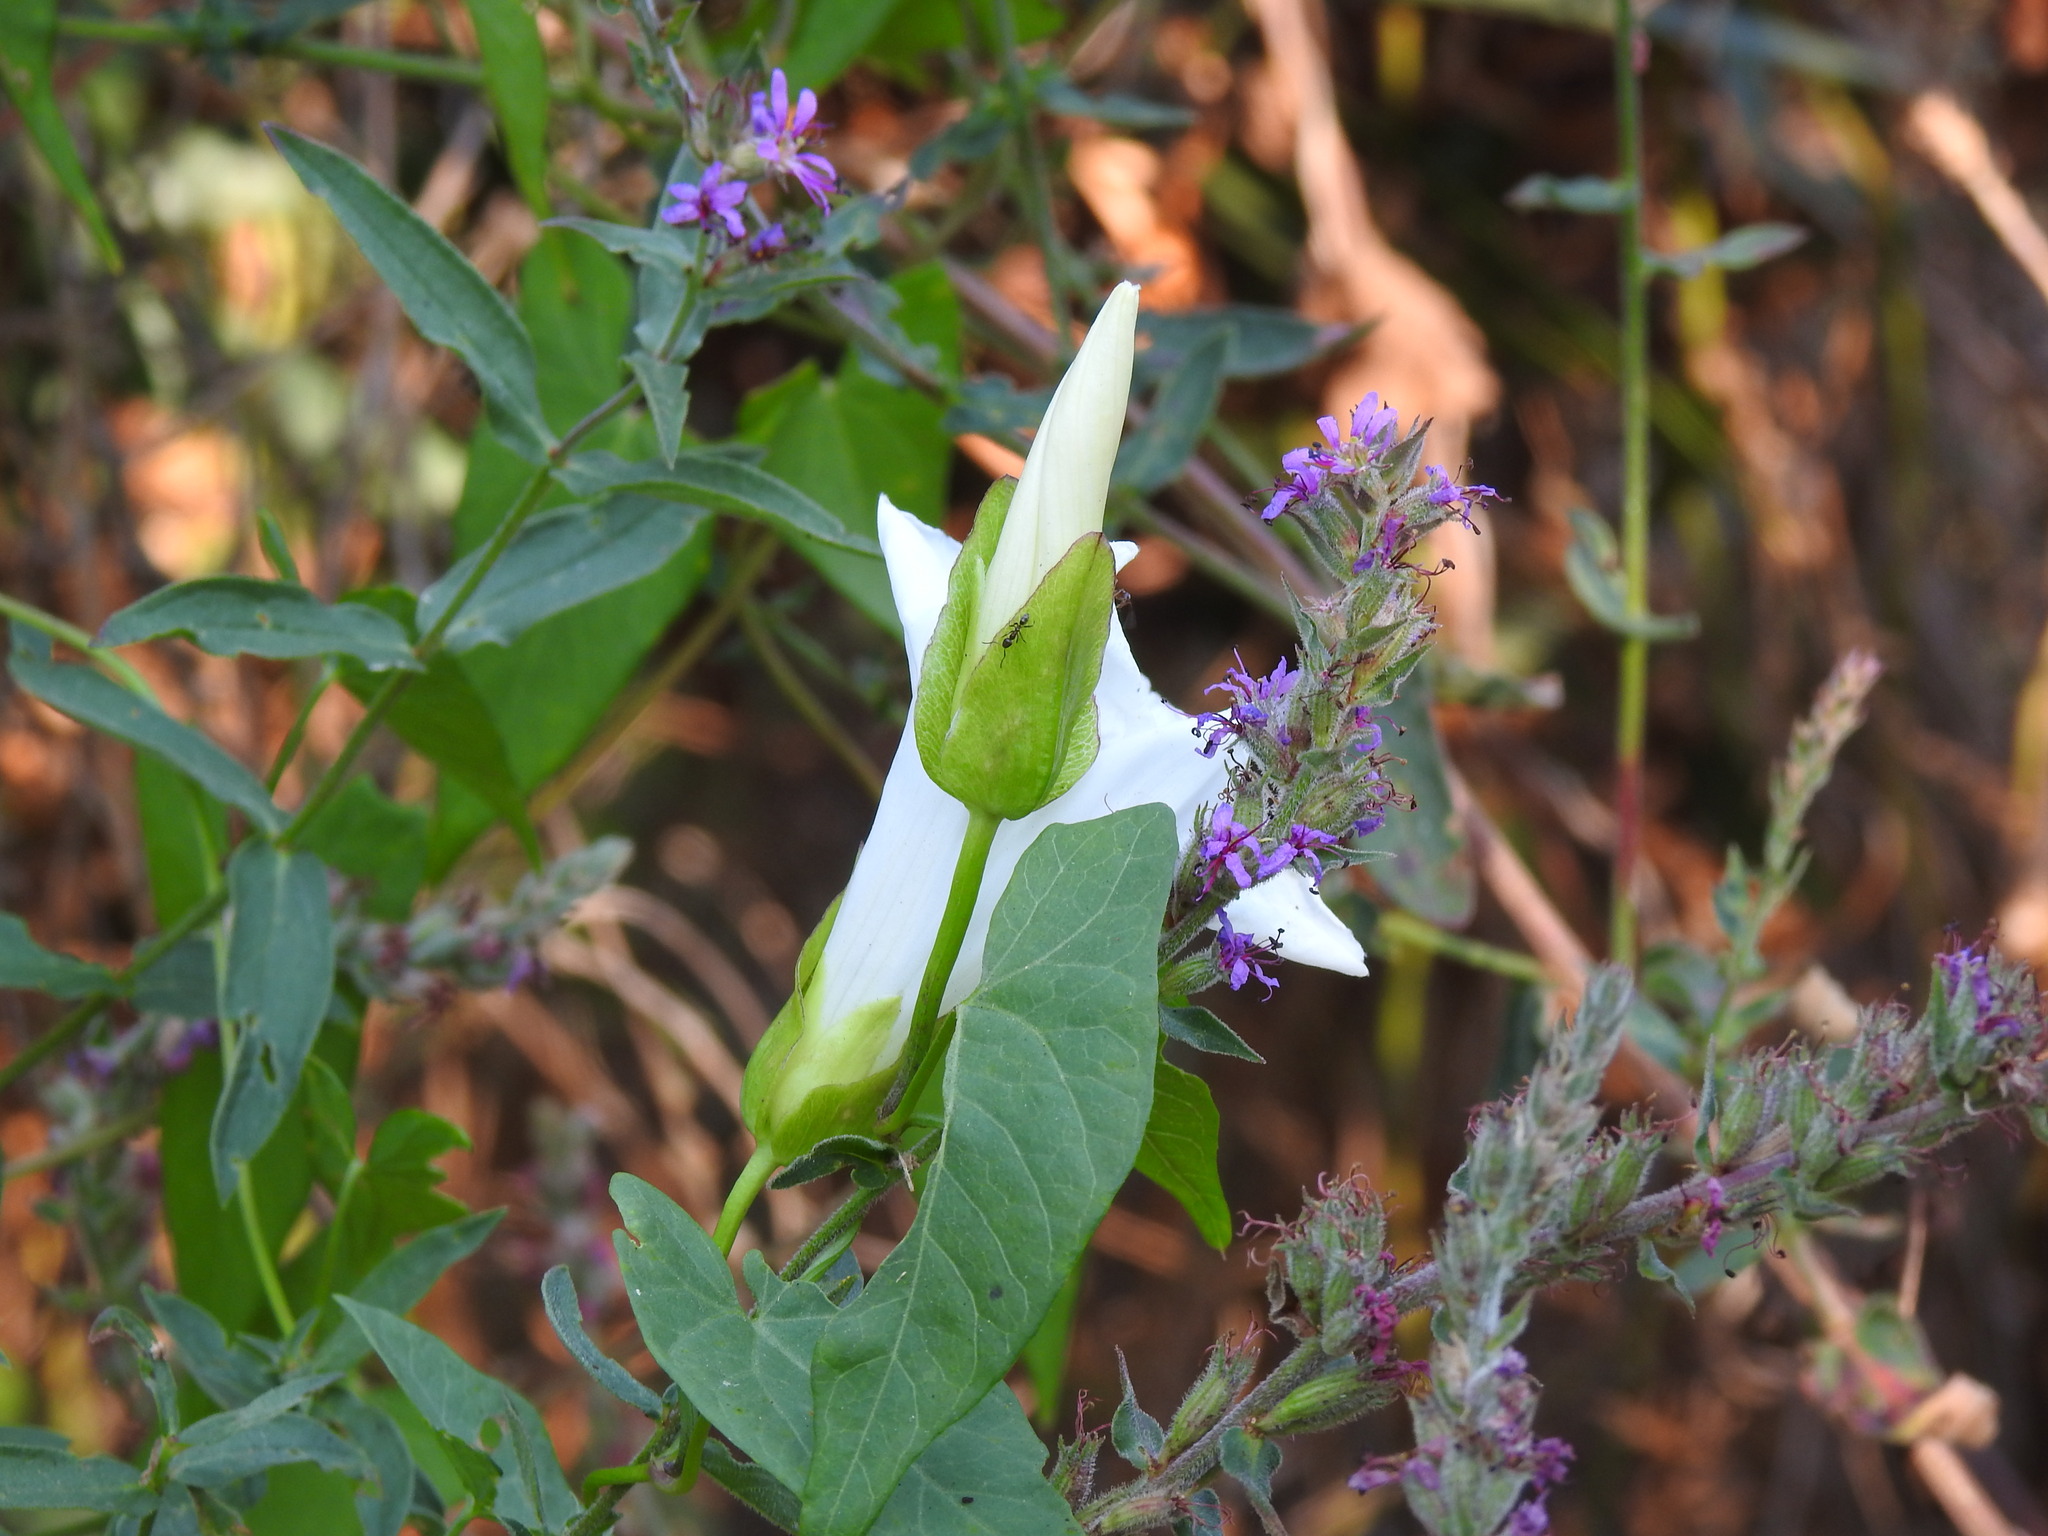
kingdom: Plantae
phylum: Tracheophyta
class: Magnoliopsida
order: Solanales
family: Convolvulaceae
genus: Calystegia
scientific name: Calystegia sepium
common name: Hedge bindweed
